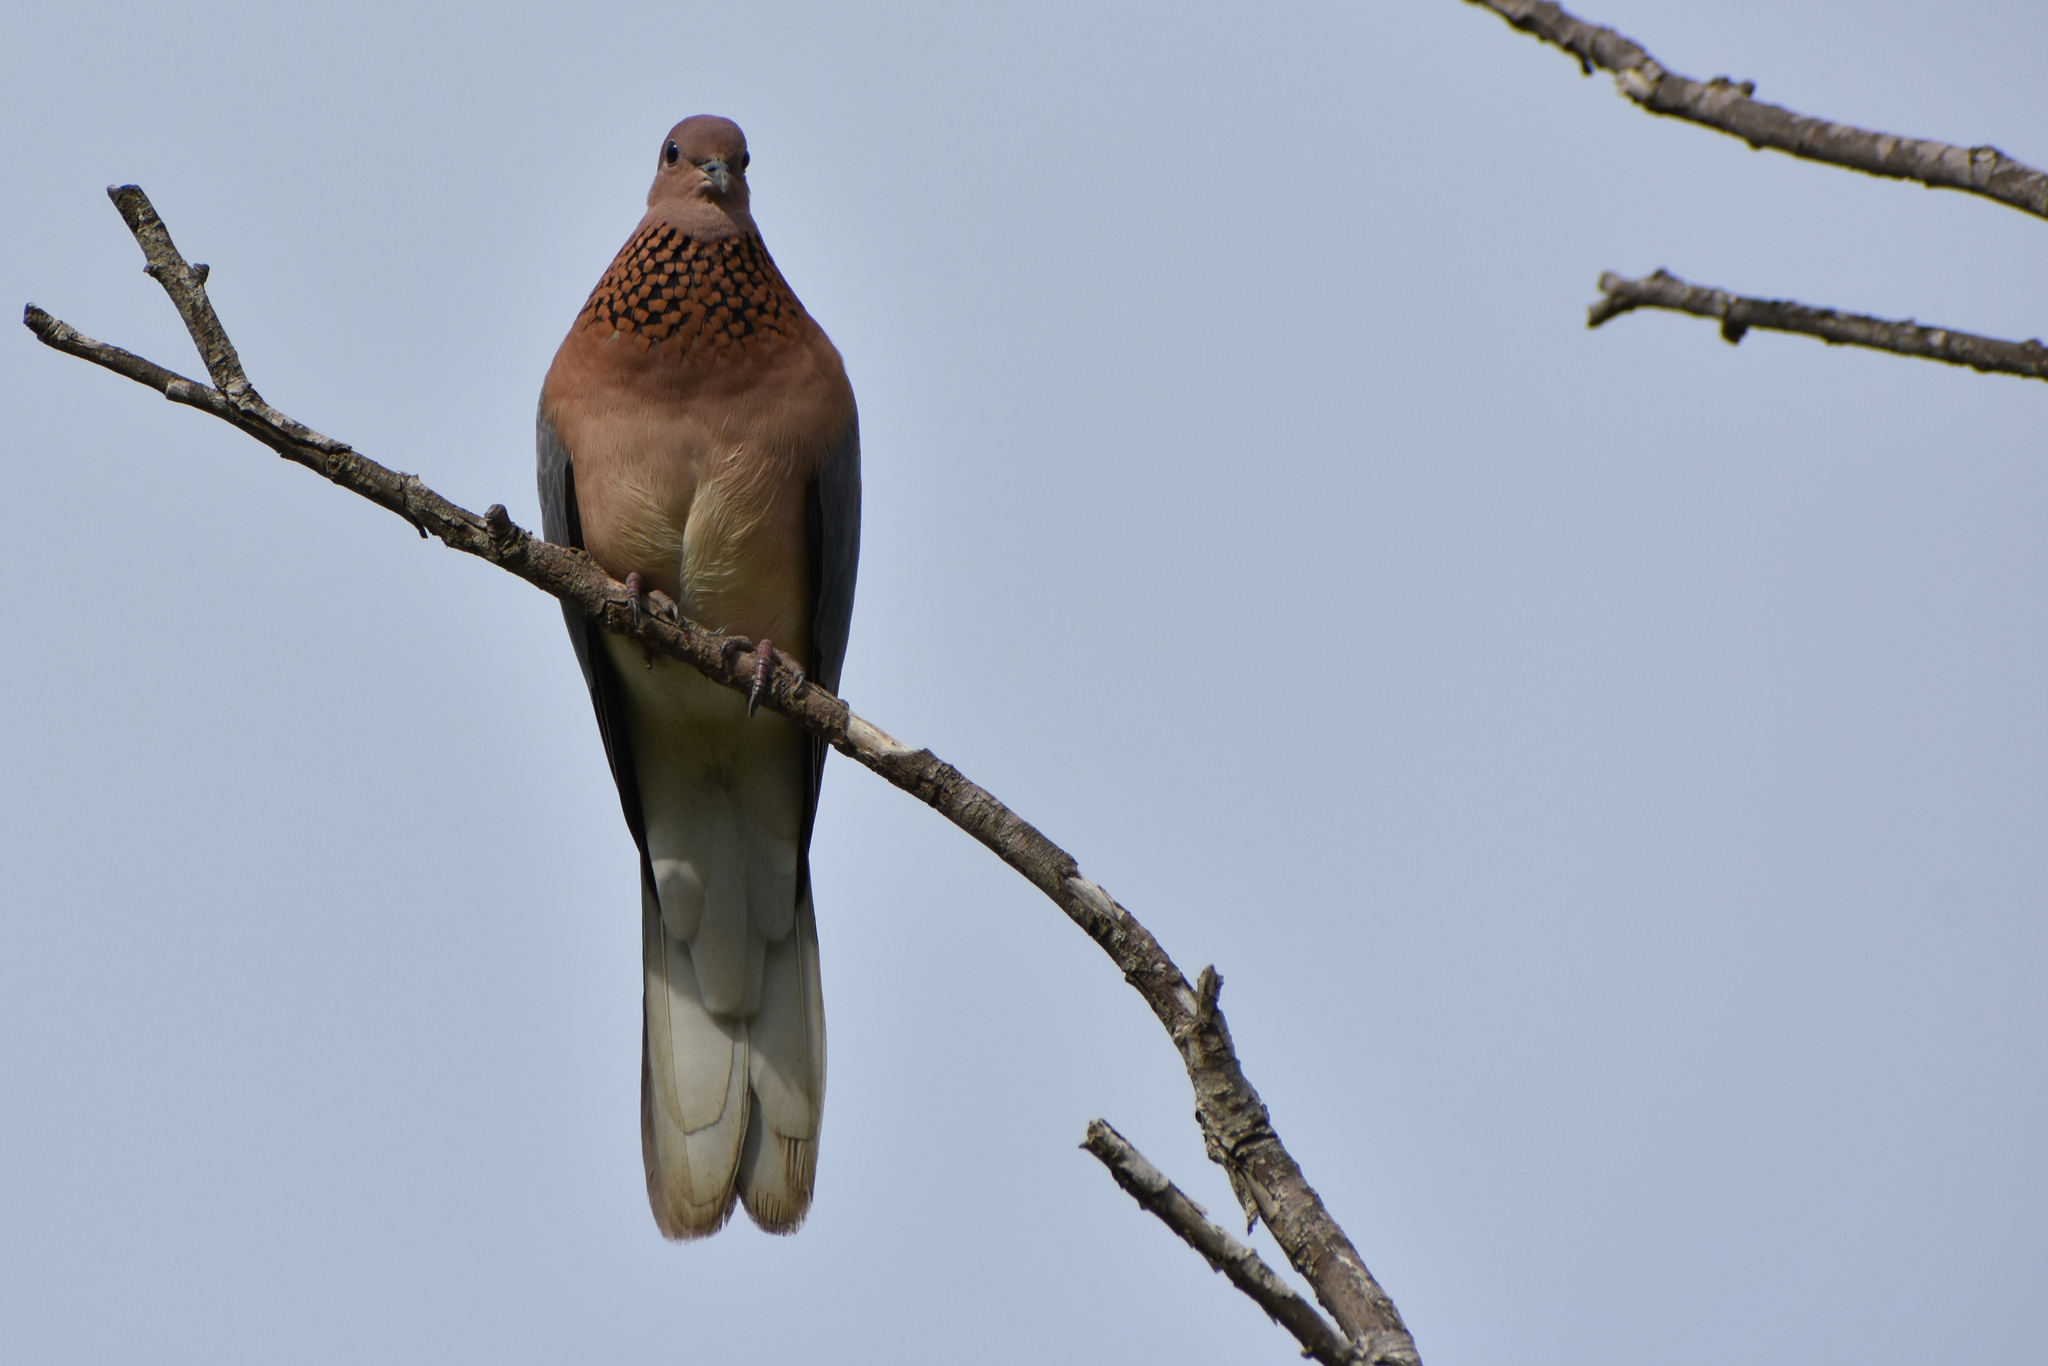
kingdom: Animalia
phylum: Chordata
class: Aves
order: Columbiformes
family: Columbidae
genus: Spilopelia
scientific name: Spilopelia senegalensis
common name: Laughing dove
